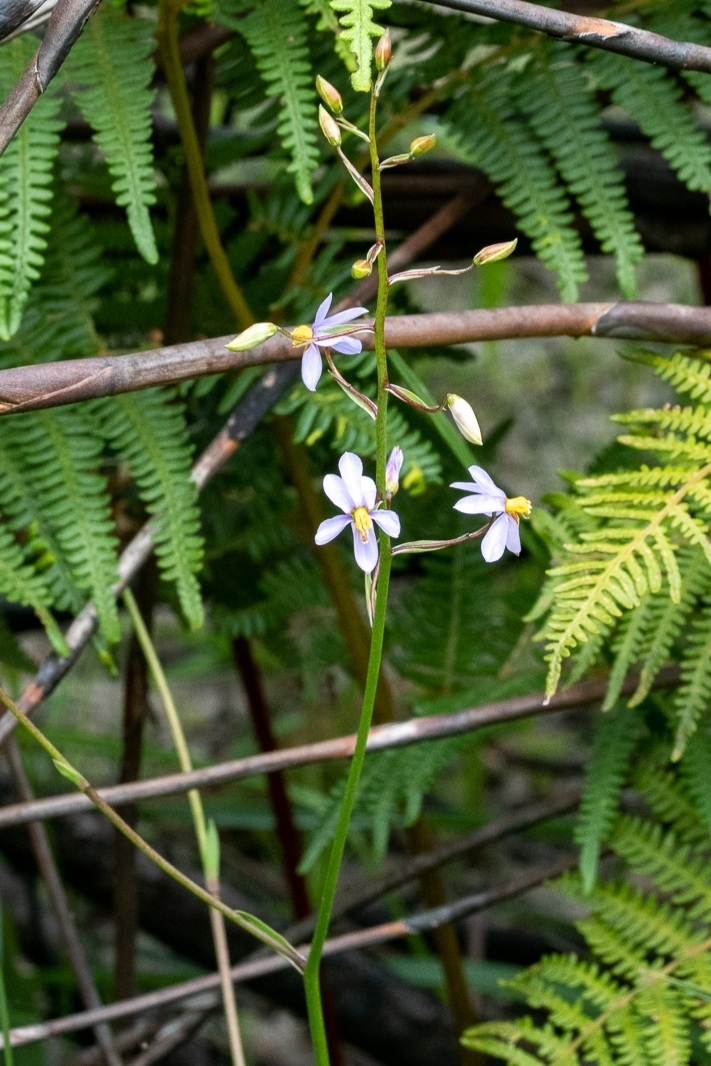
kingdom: Plantae
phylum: Tracheophyta
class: Liliopsida
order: Asparagales
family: Tecophilaeaceae
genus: Cyanella
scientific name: Cyanella hyacinthoides
